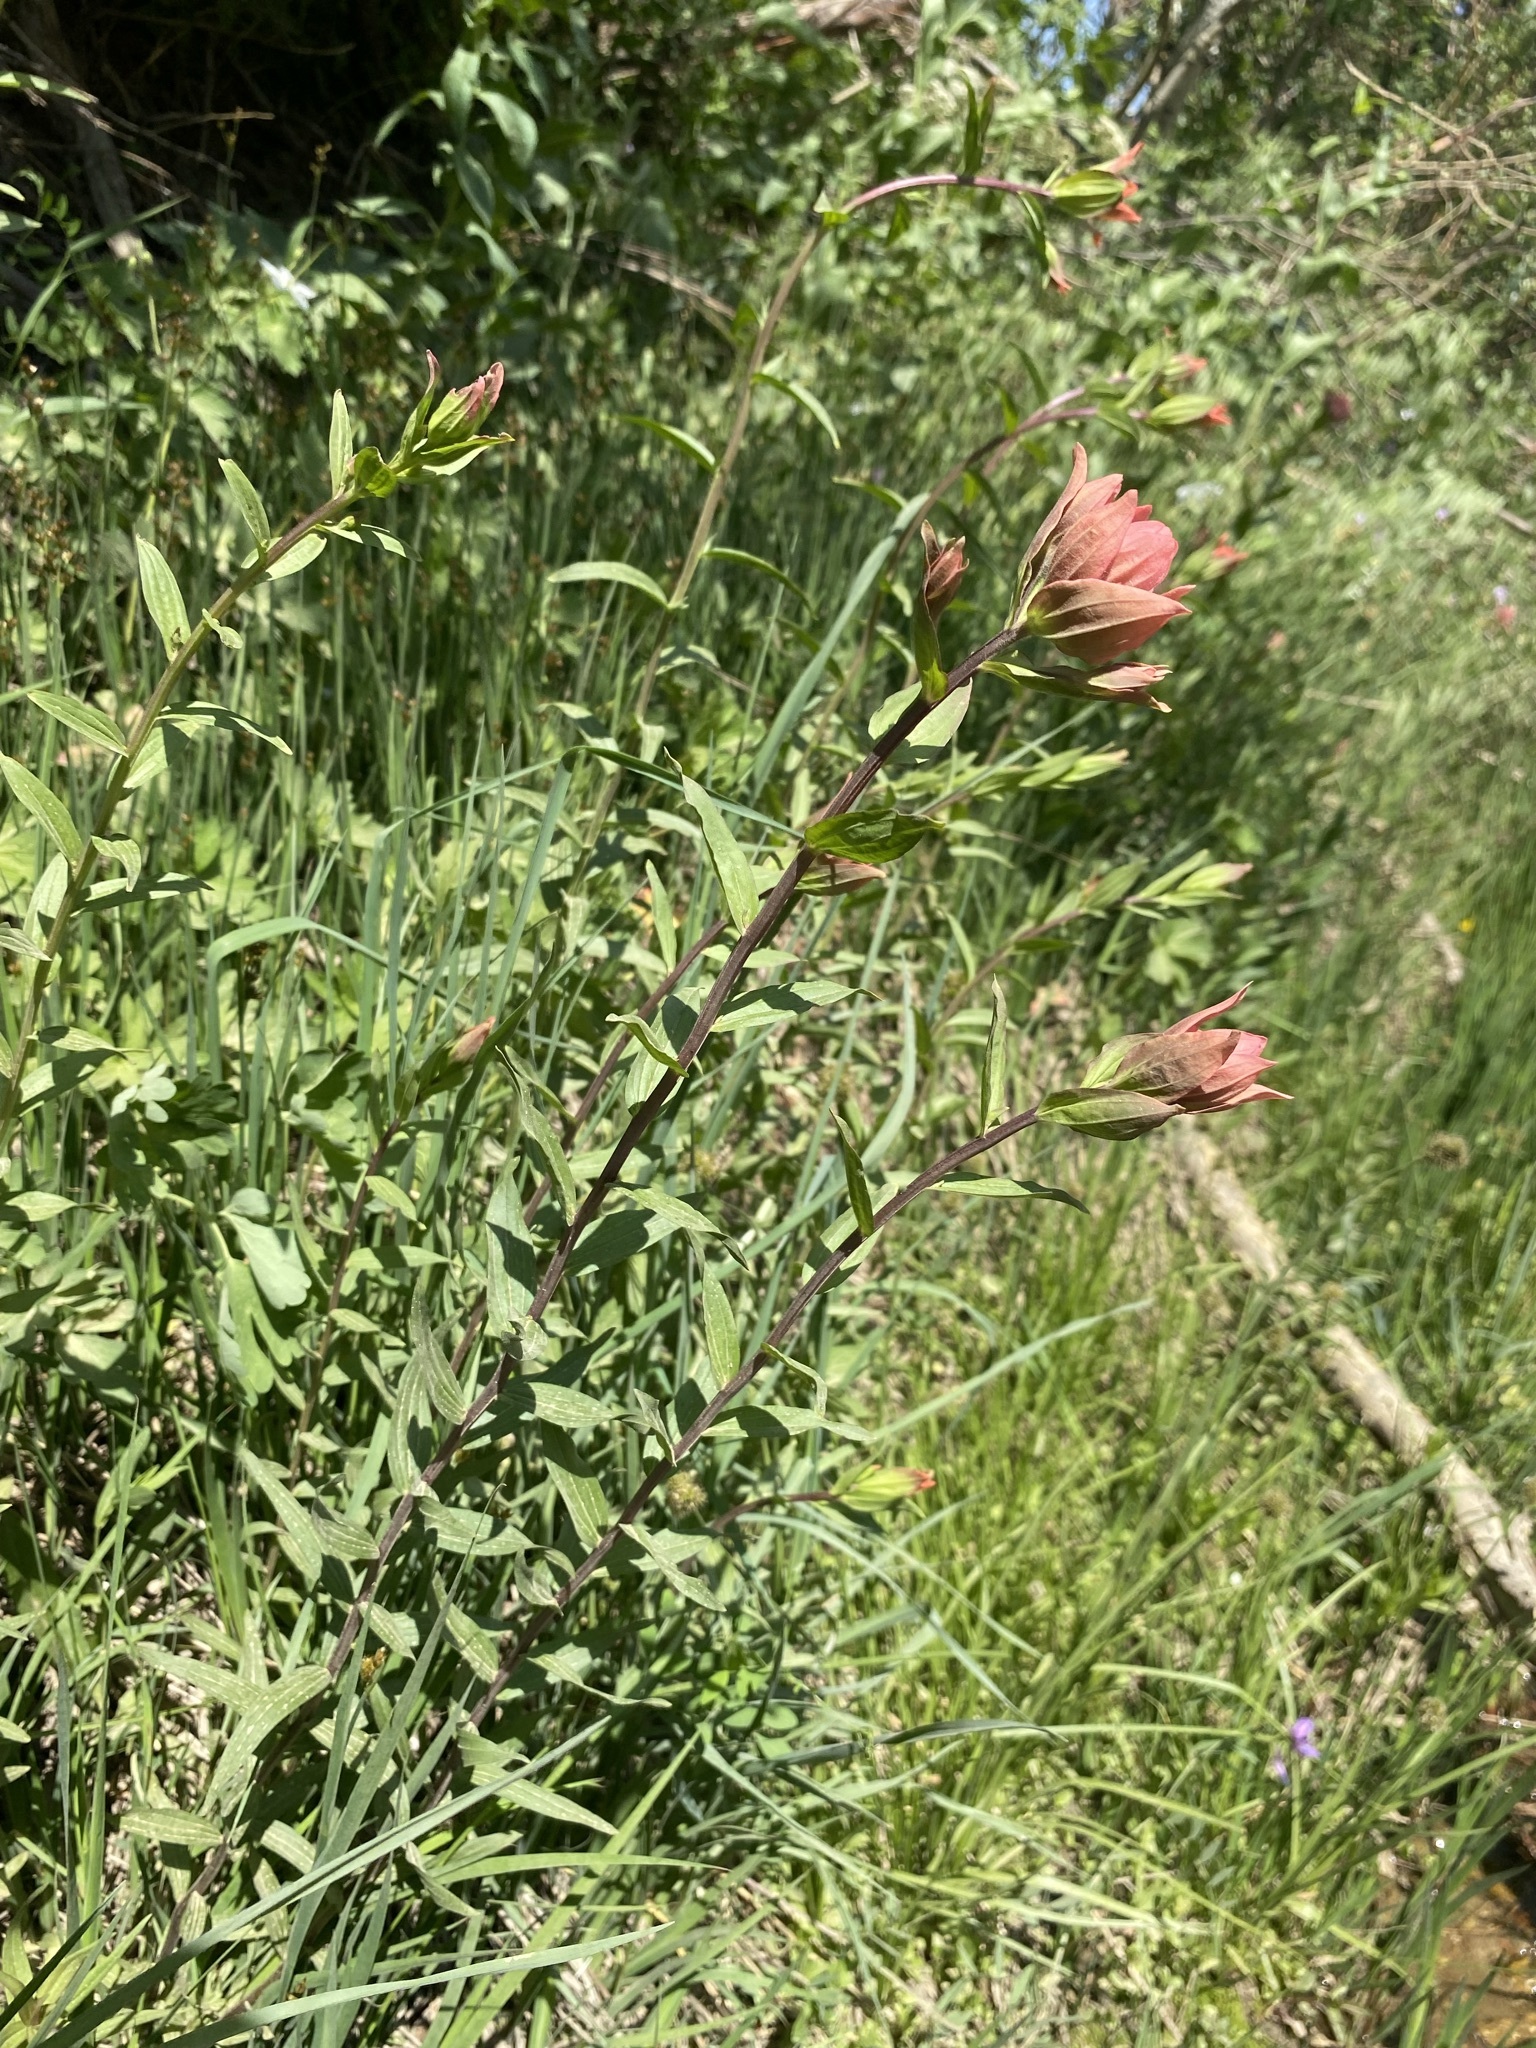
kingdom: Plantae
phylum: Tracheophyta
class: Magnoliopsida
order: Lamiales
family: Orobanchaceae
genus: Castilleja
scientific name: Castilleja miniata
